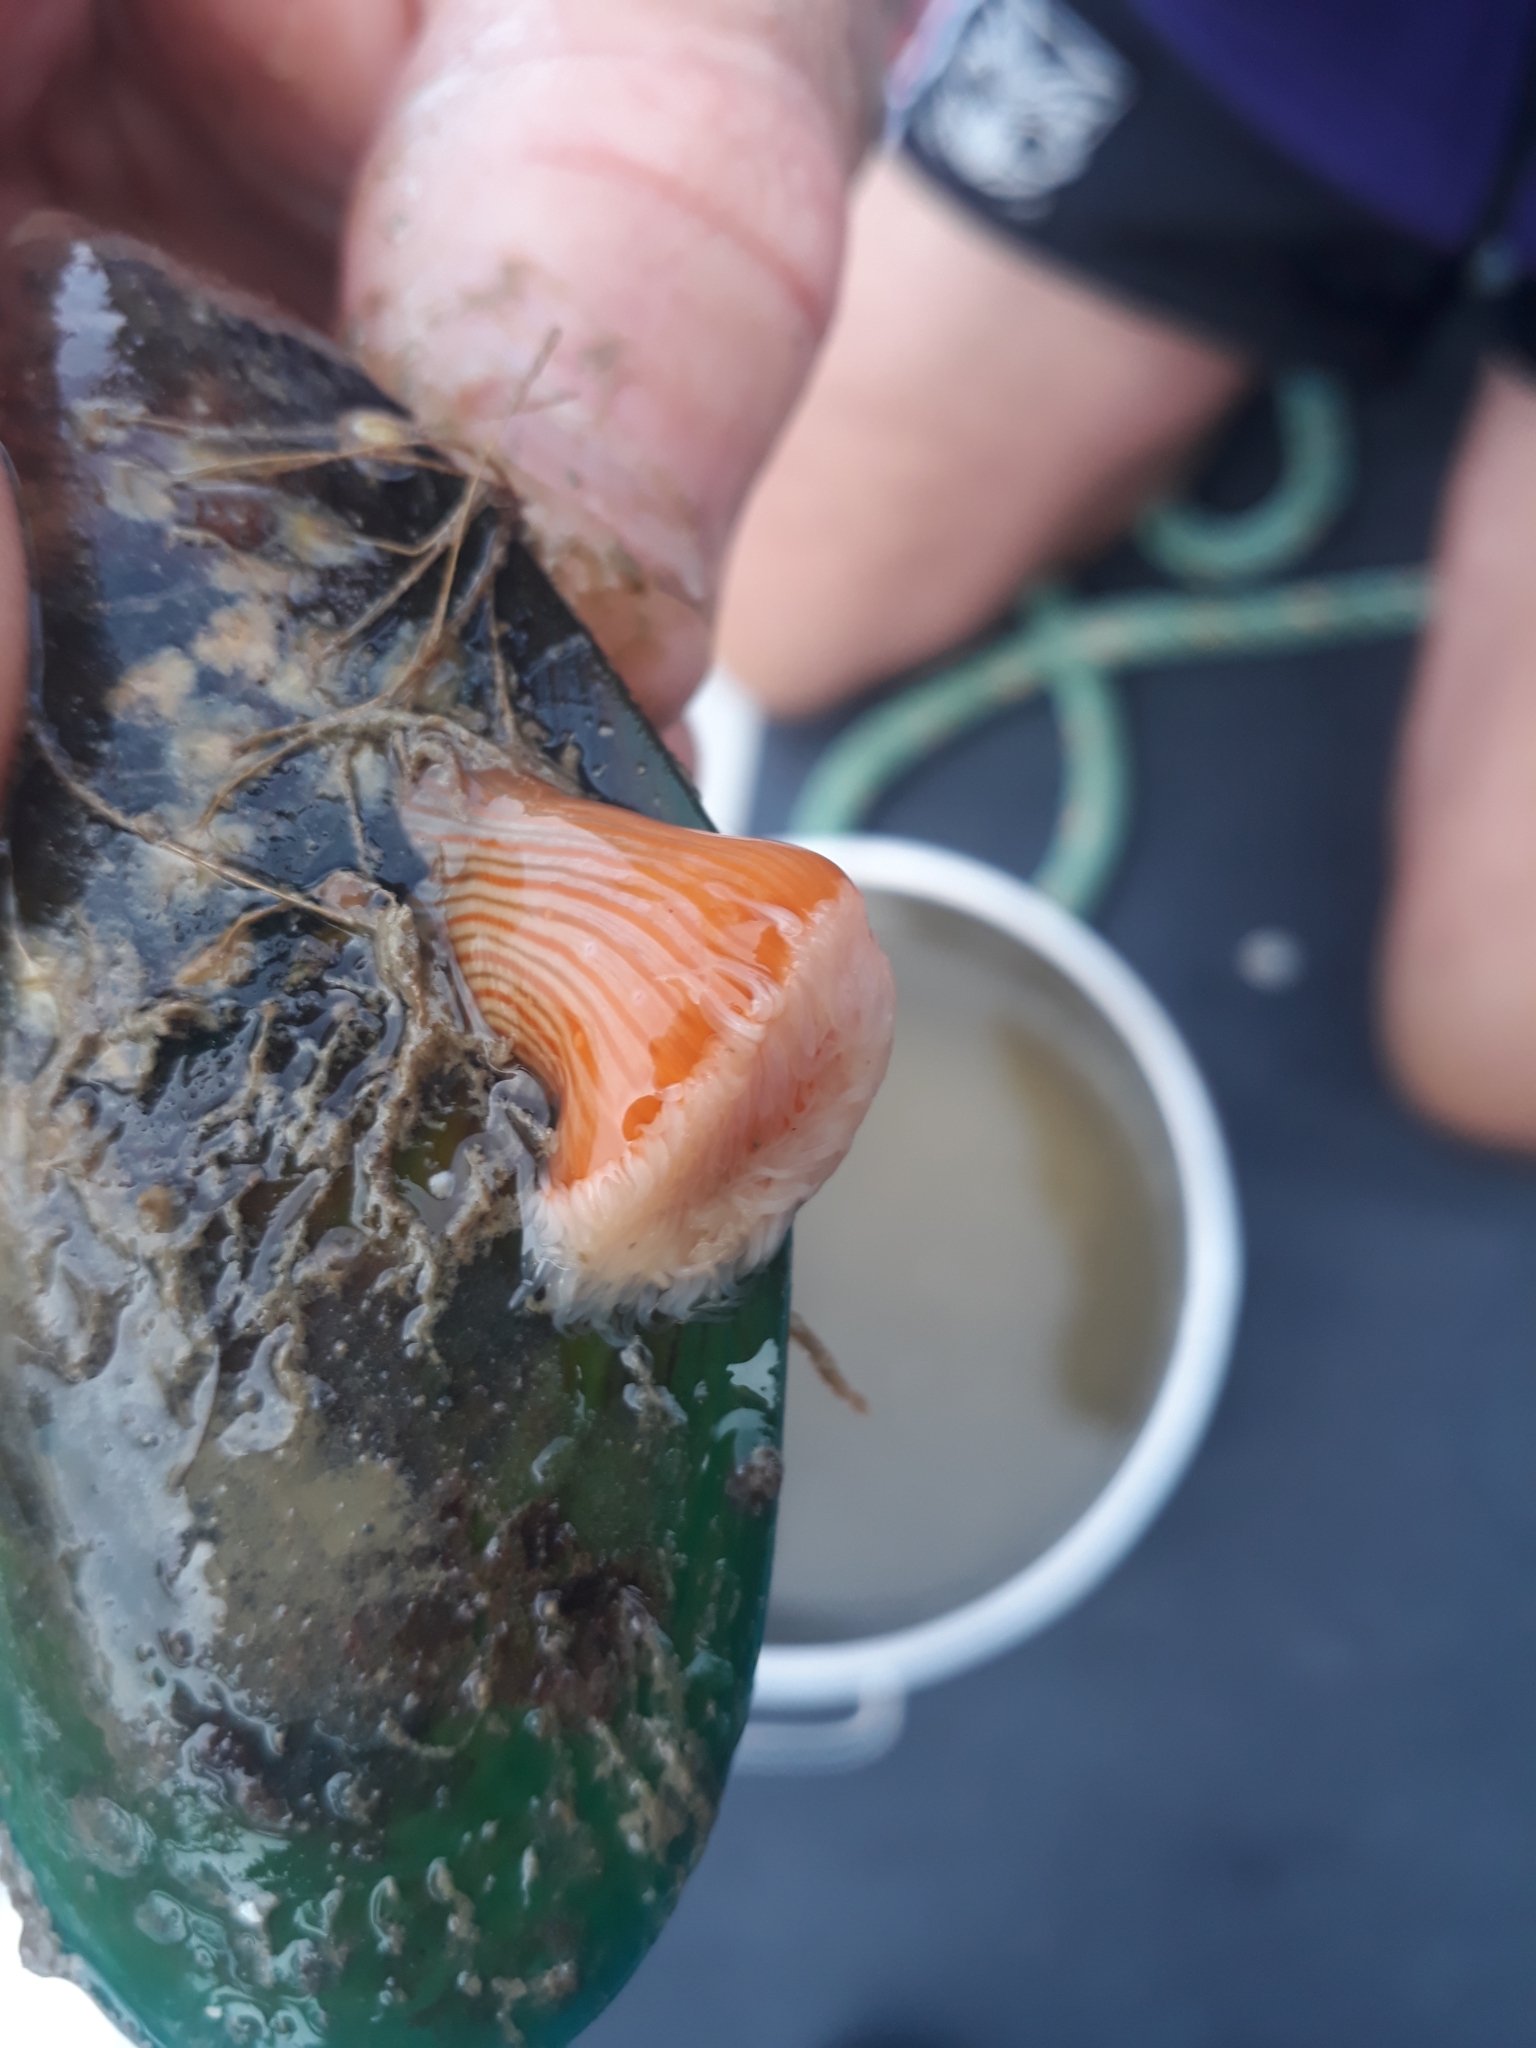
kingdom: Animalia
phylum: Cnidaria
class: Anthozoa
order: Actiniaria
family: Sagartiidae
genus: Anthothoe
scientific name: Anthothoe albocincta
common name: Orange striped anemone
